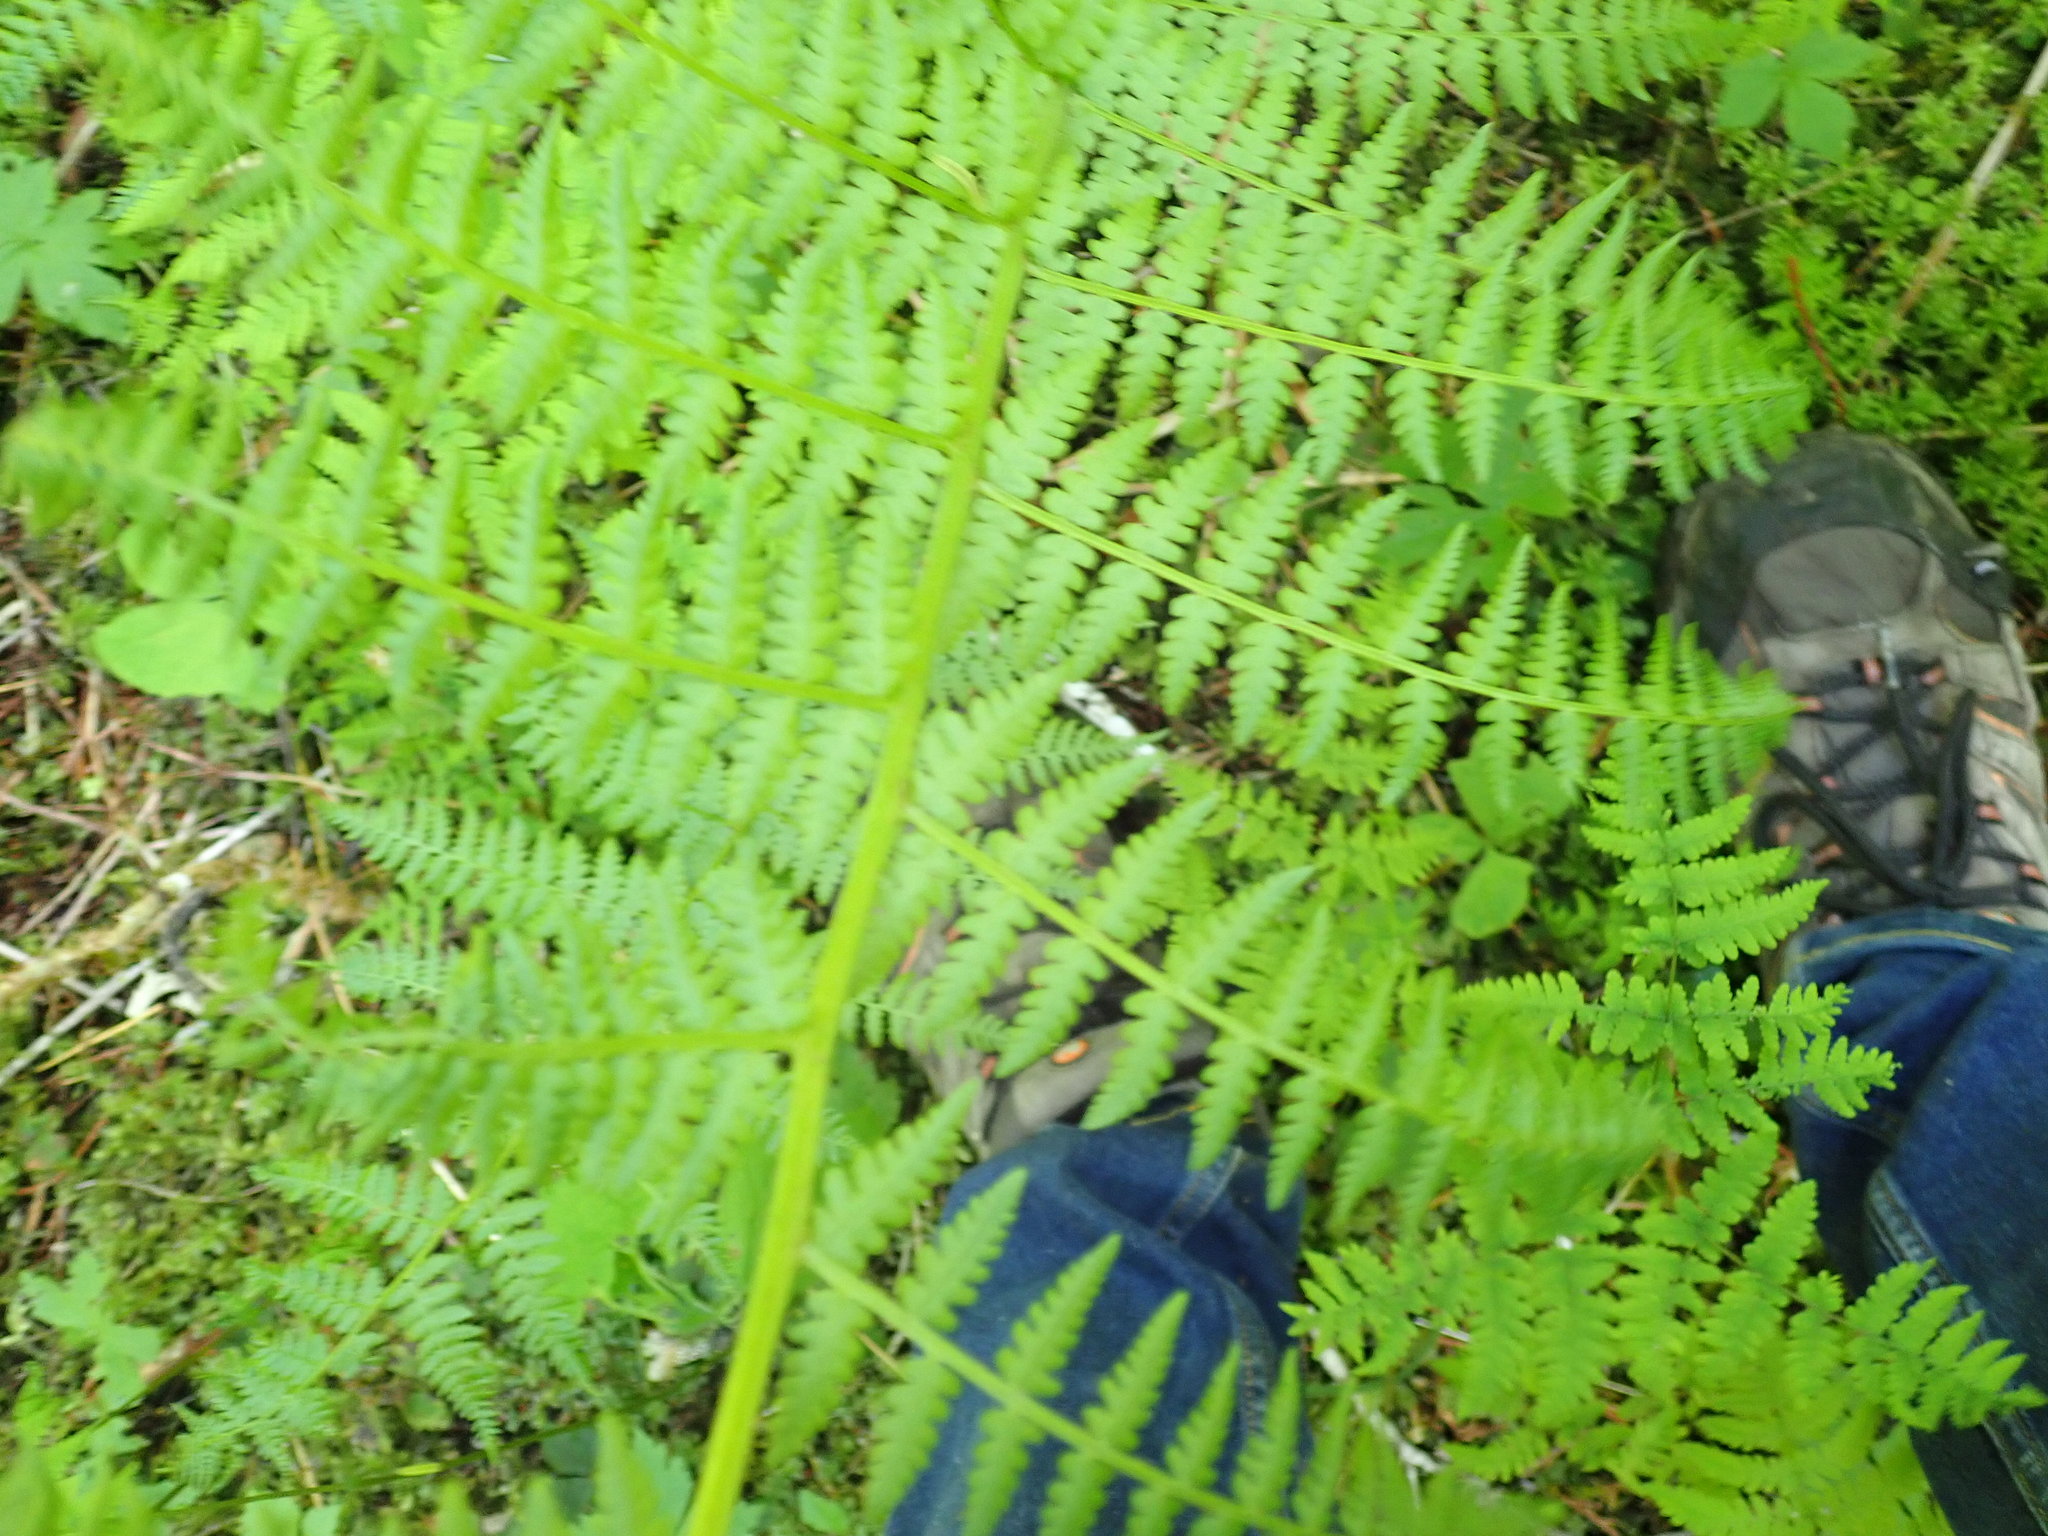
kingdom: Plantae
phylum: Tracheophyta
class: Polypodiopsida
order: Polypodiales
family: Athyriaceae
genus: Athyrium
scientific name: Athyrium filix-femina
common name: Lady fern
